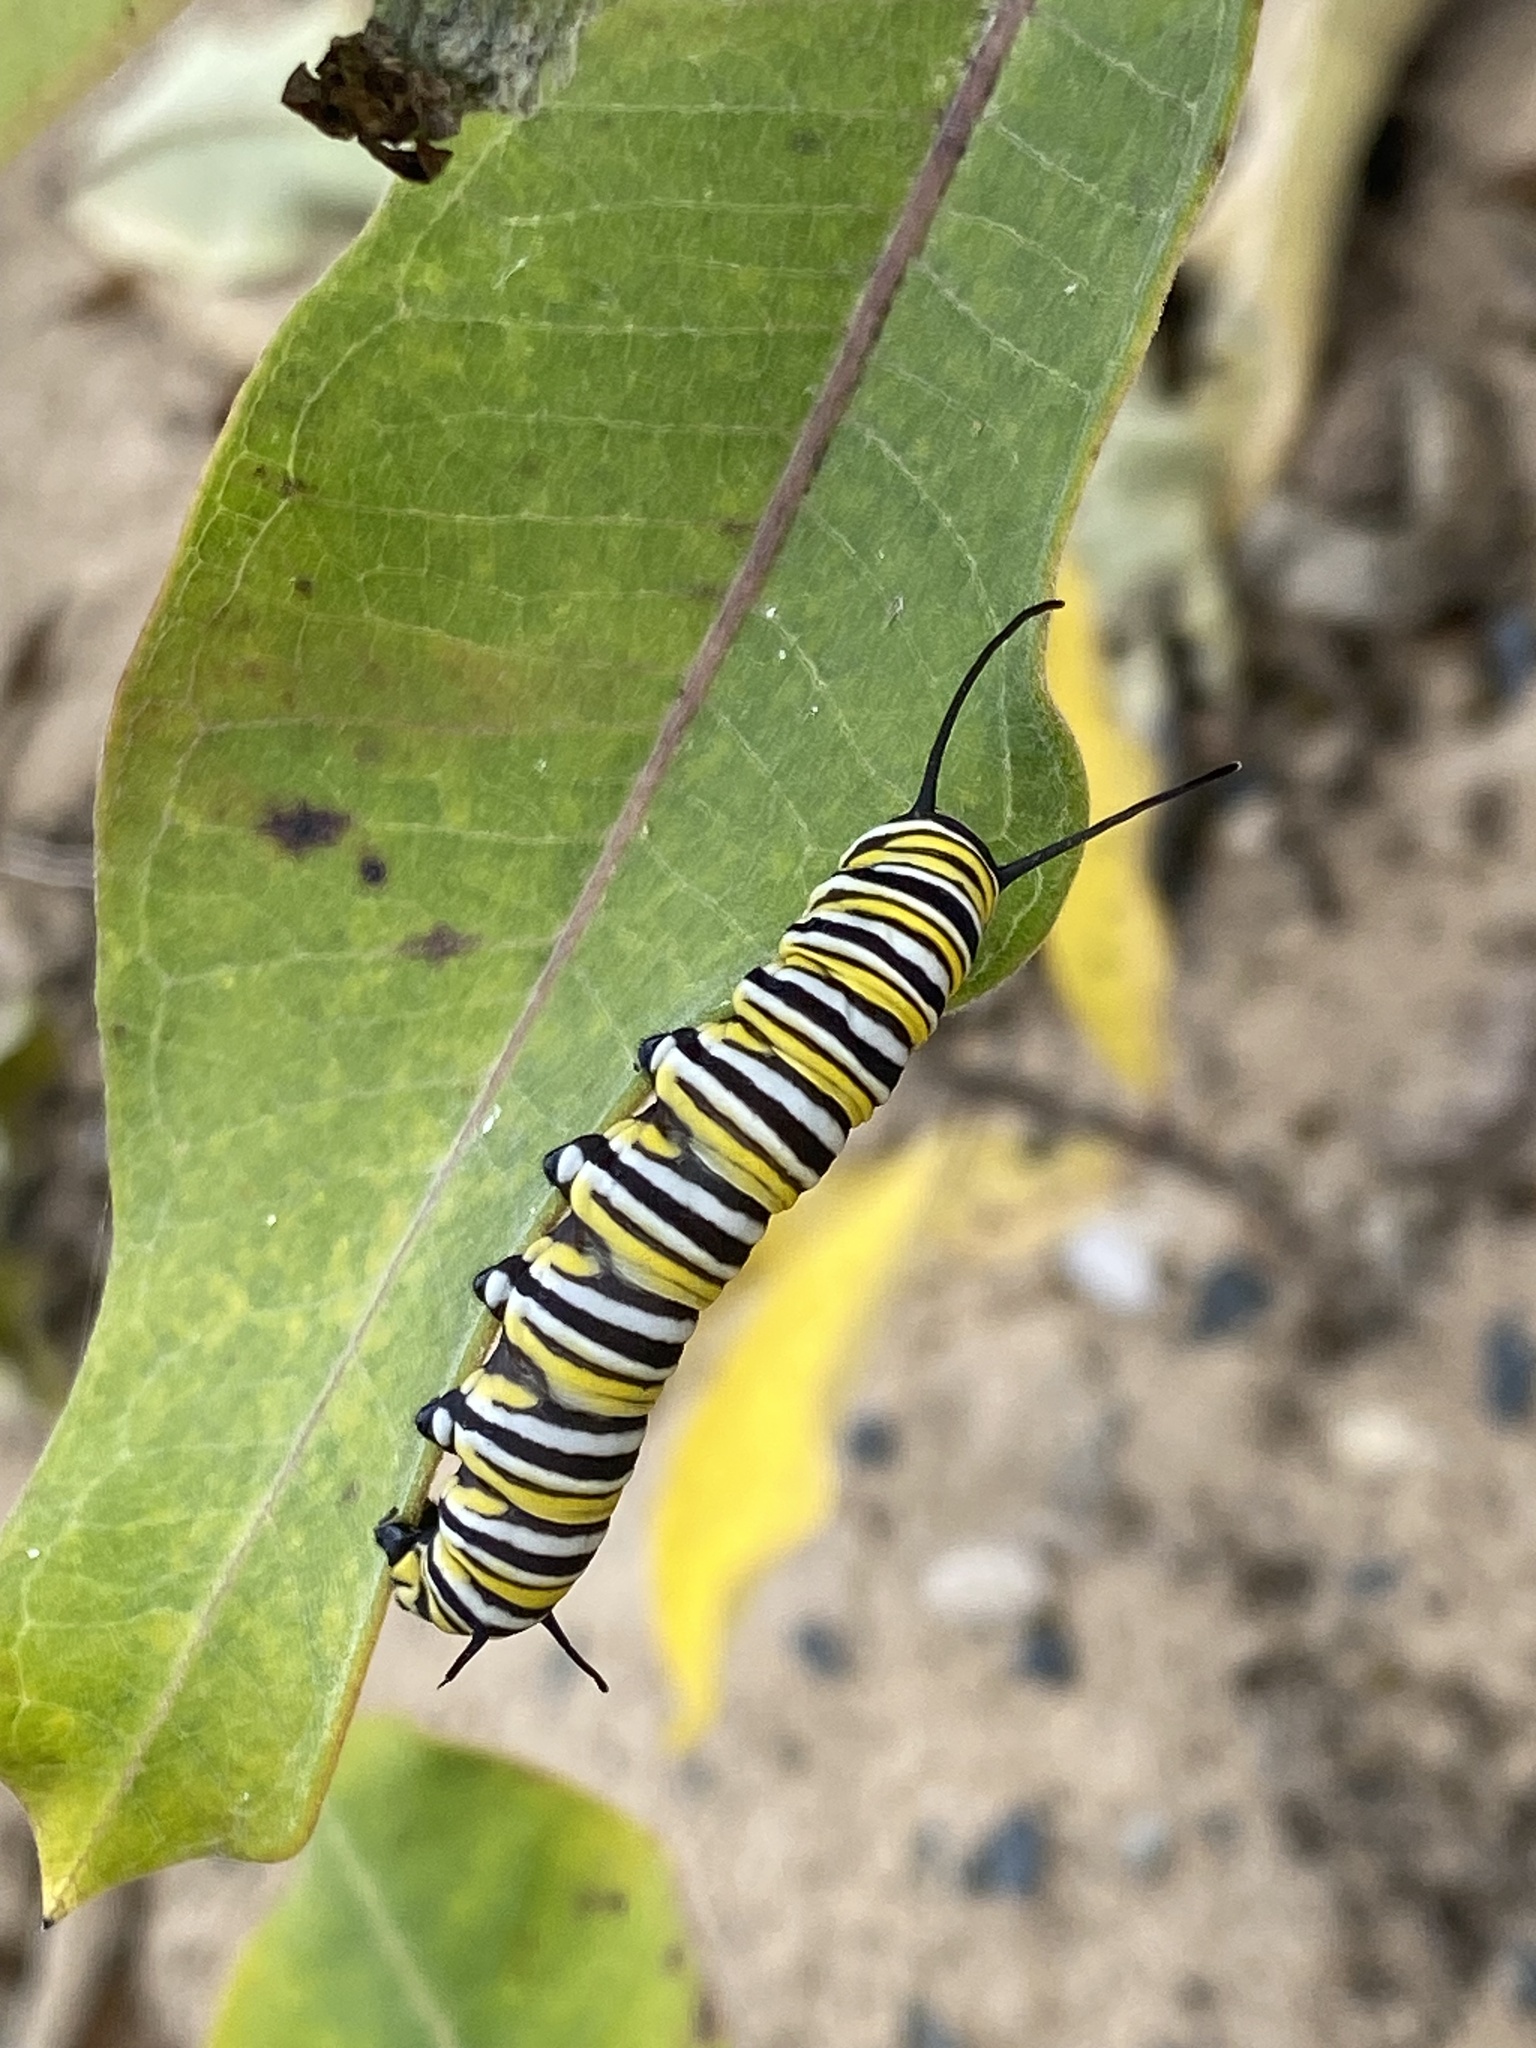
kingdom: Animalia
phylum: Arthropoda
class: Insecta
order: Lepidoptera
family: Nymphalidae
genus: Danaus
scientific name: Danaus plexippus
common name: Monarch
